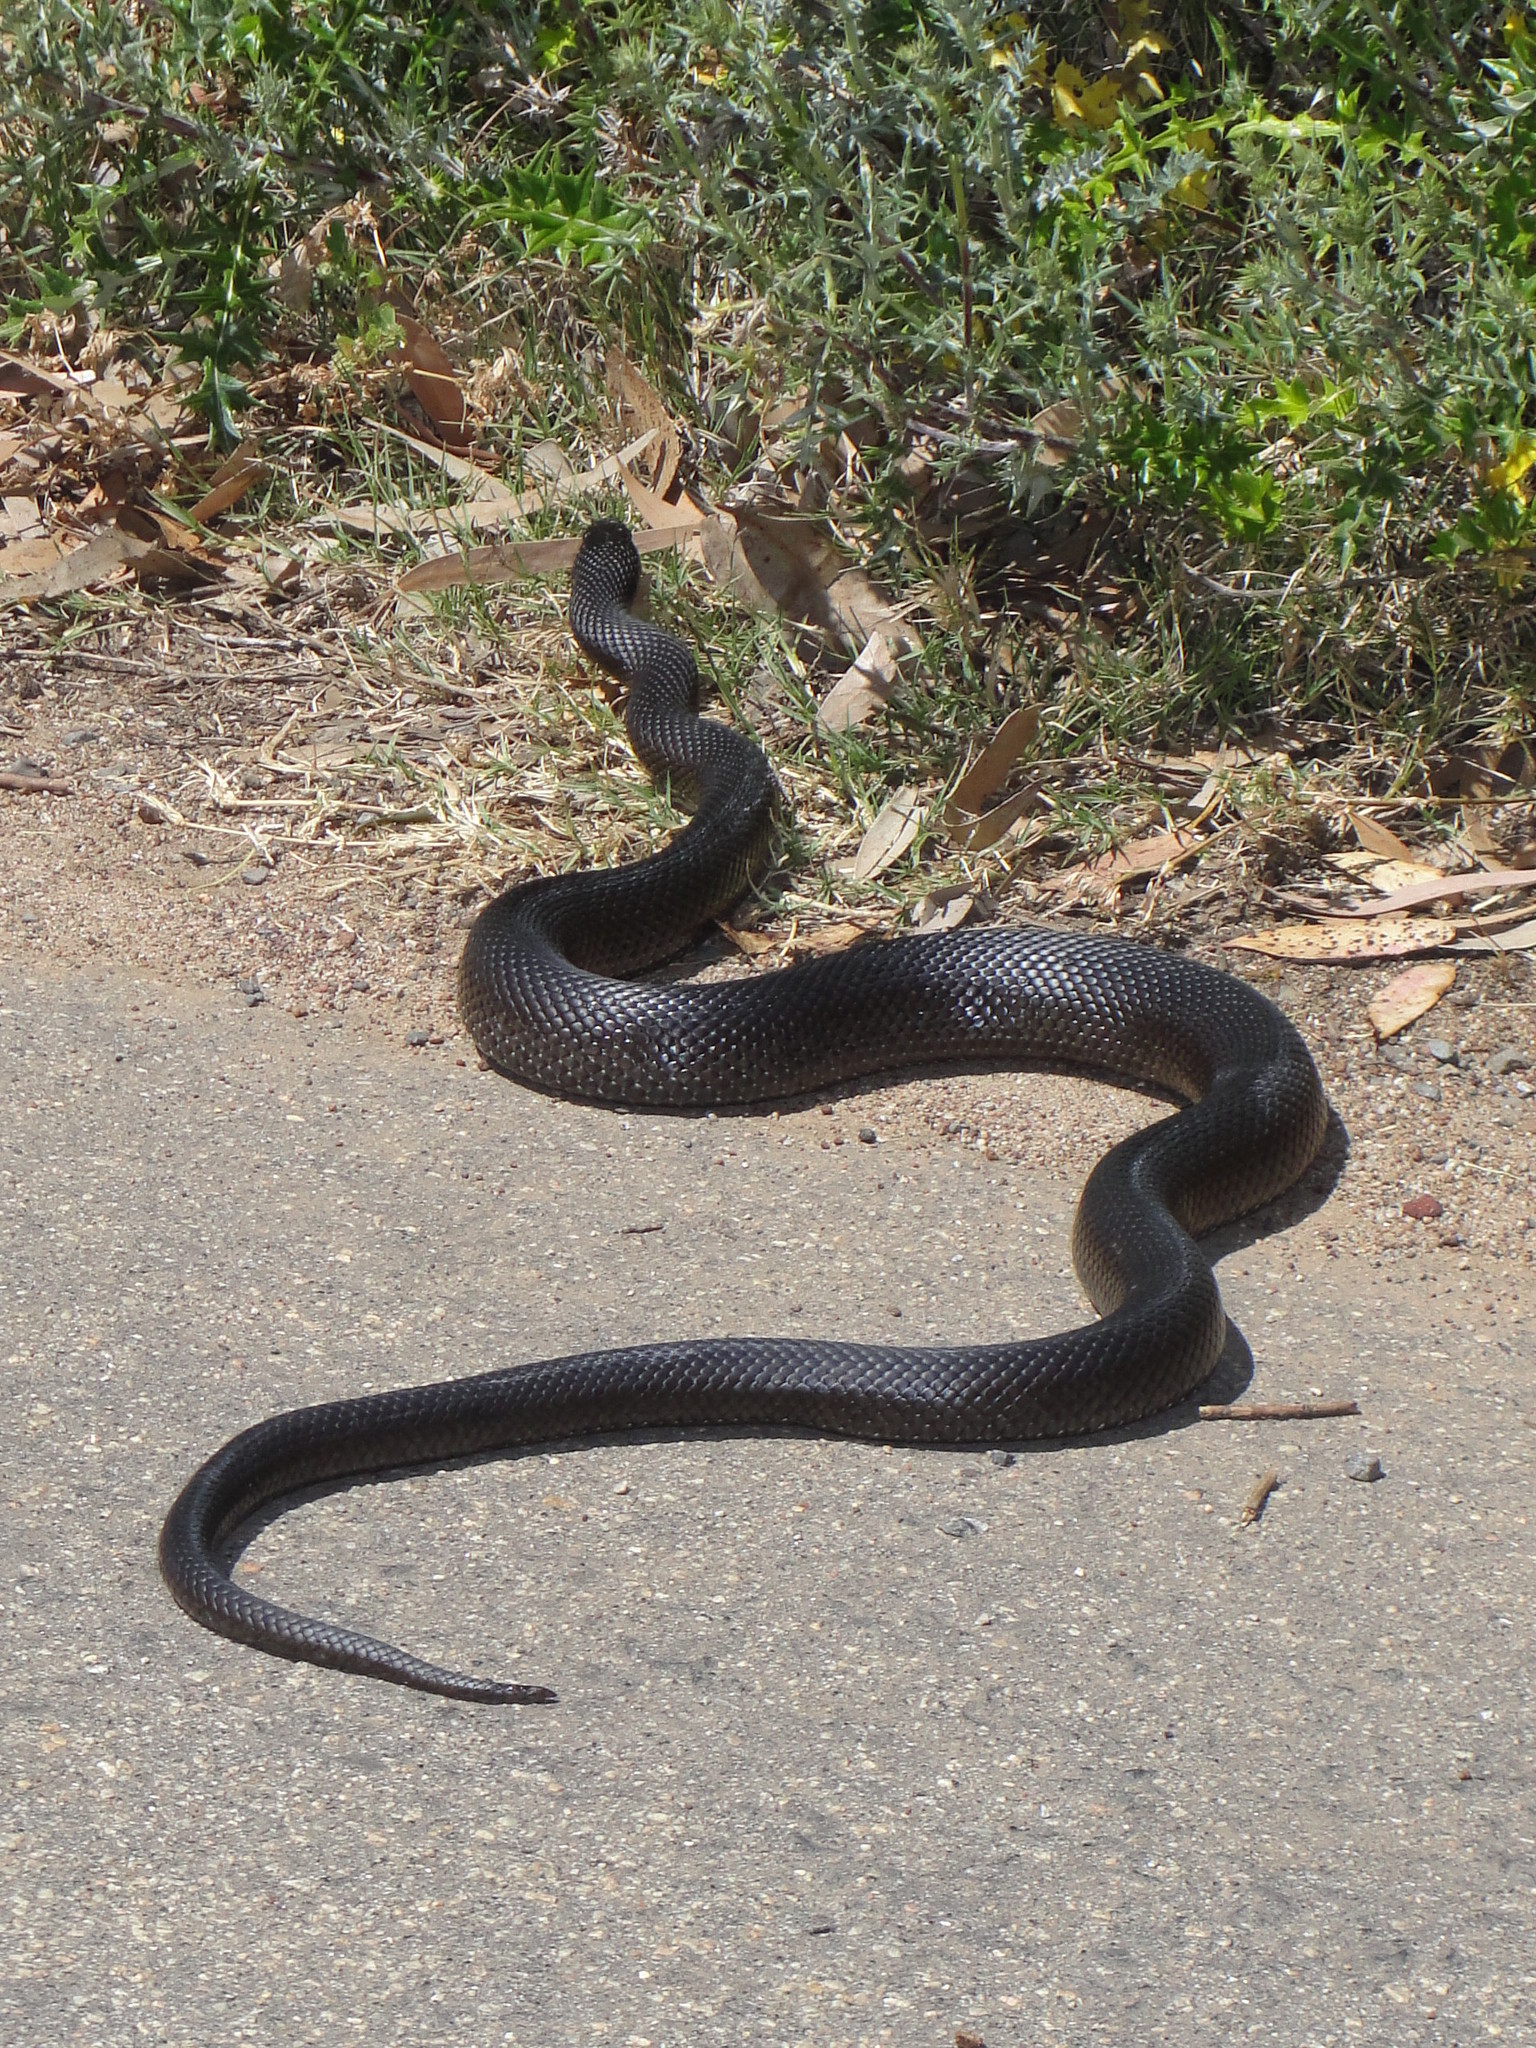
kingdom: Animalia
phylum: Chordata
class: Squamata
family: Pseudaspididae
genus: Pseudaspis
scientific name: Pseudaspis cana
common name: Mole snake
